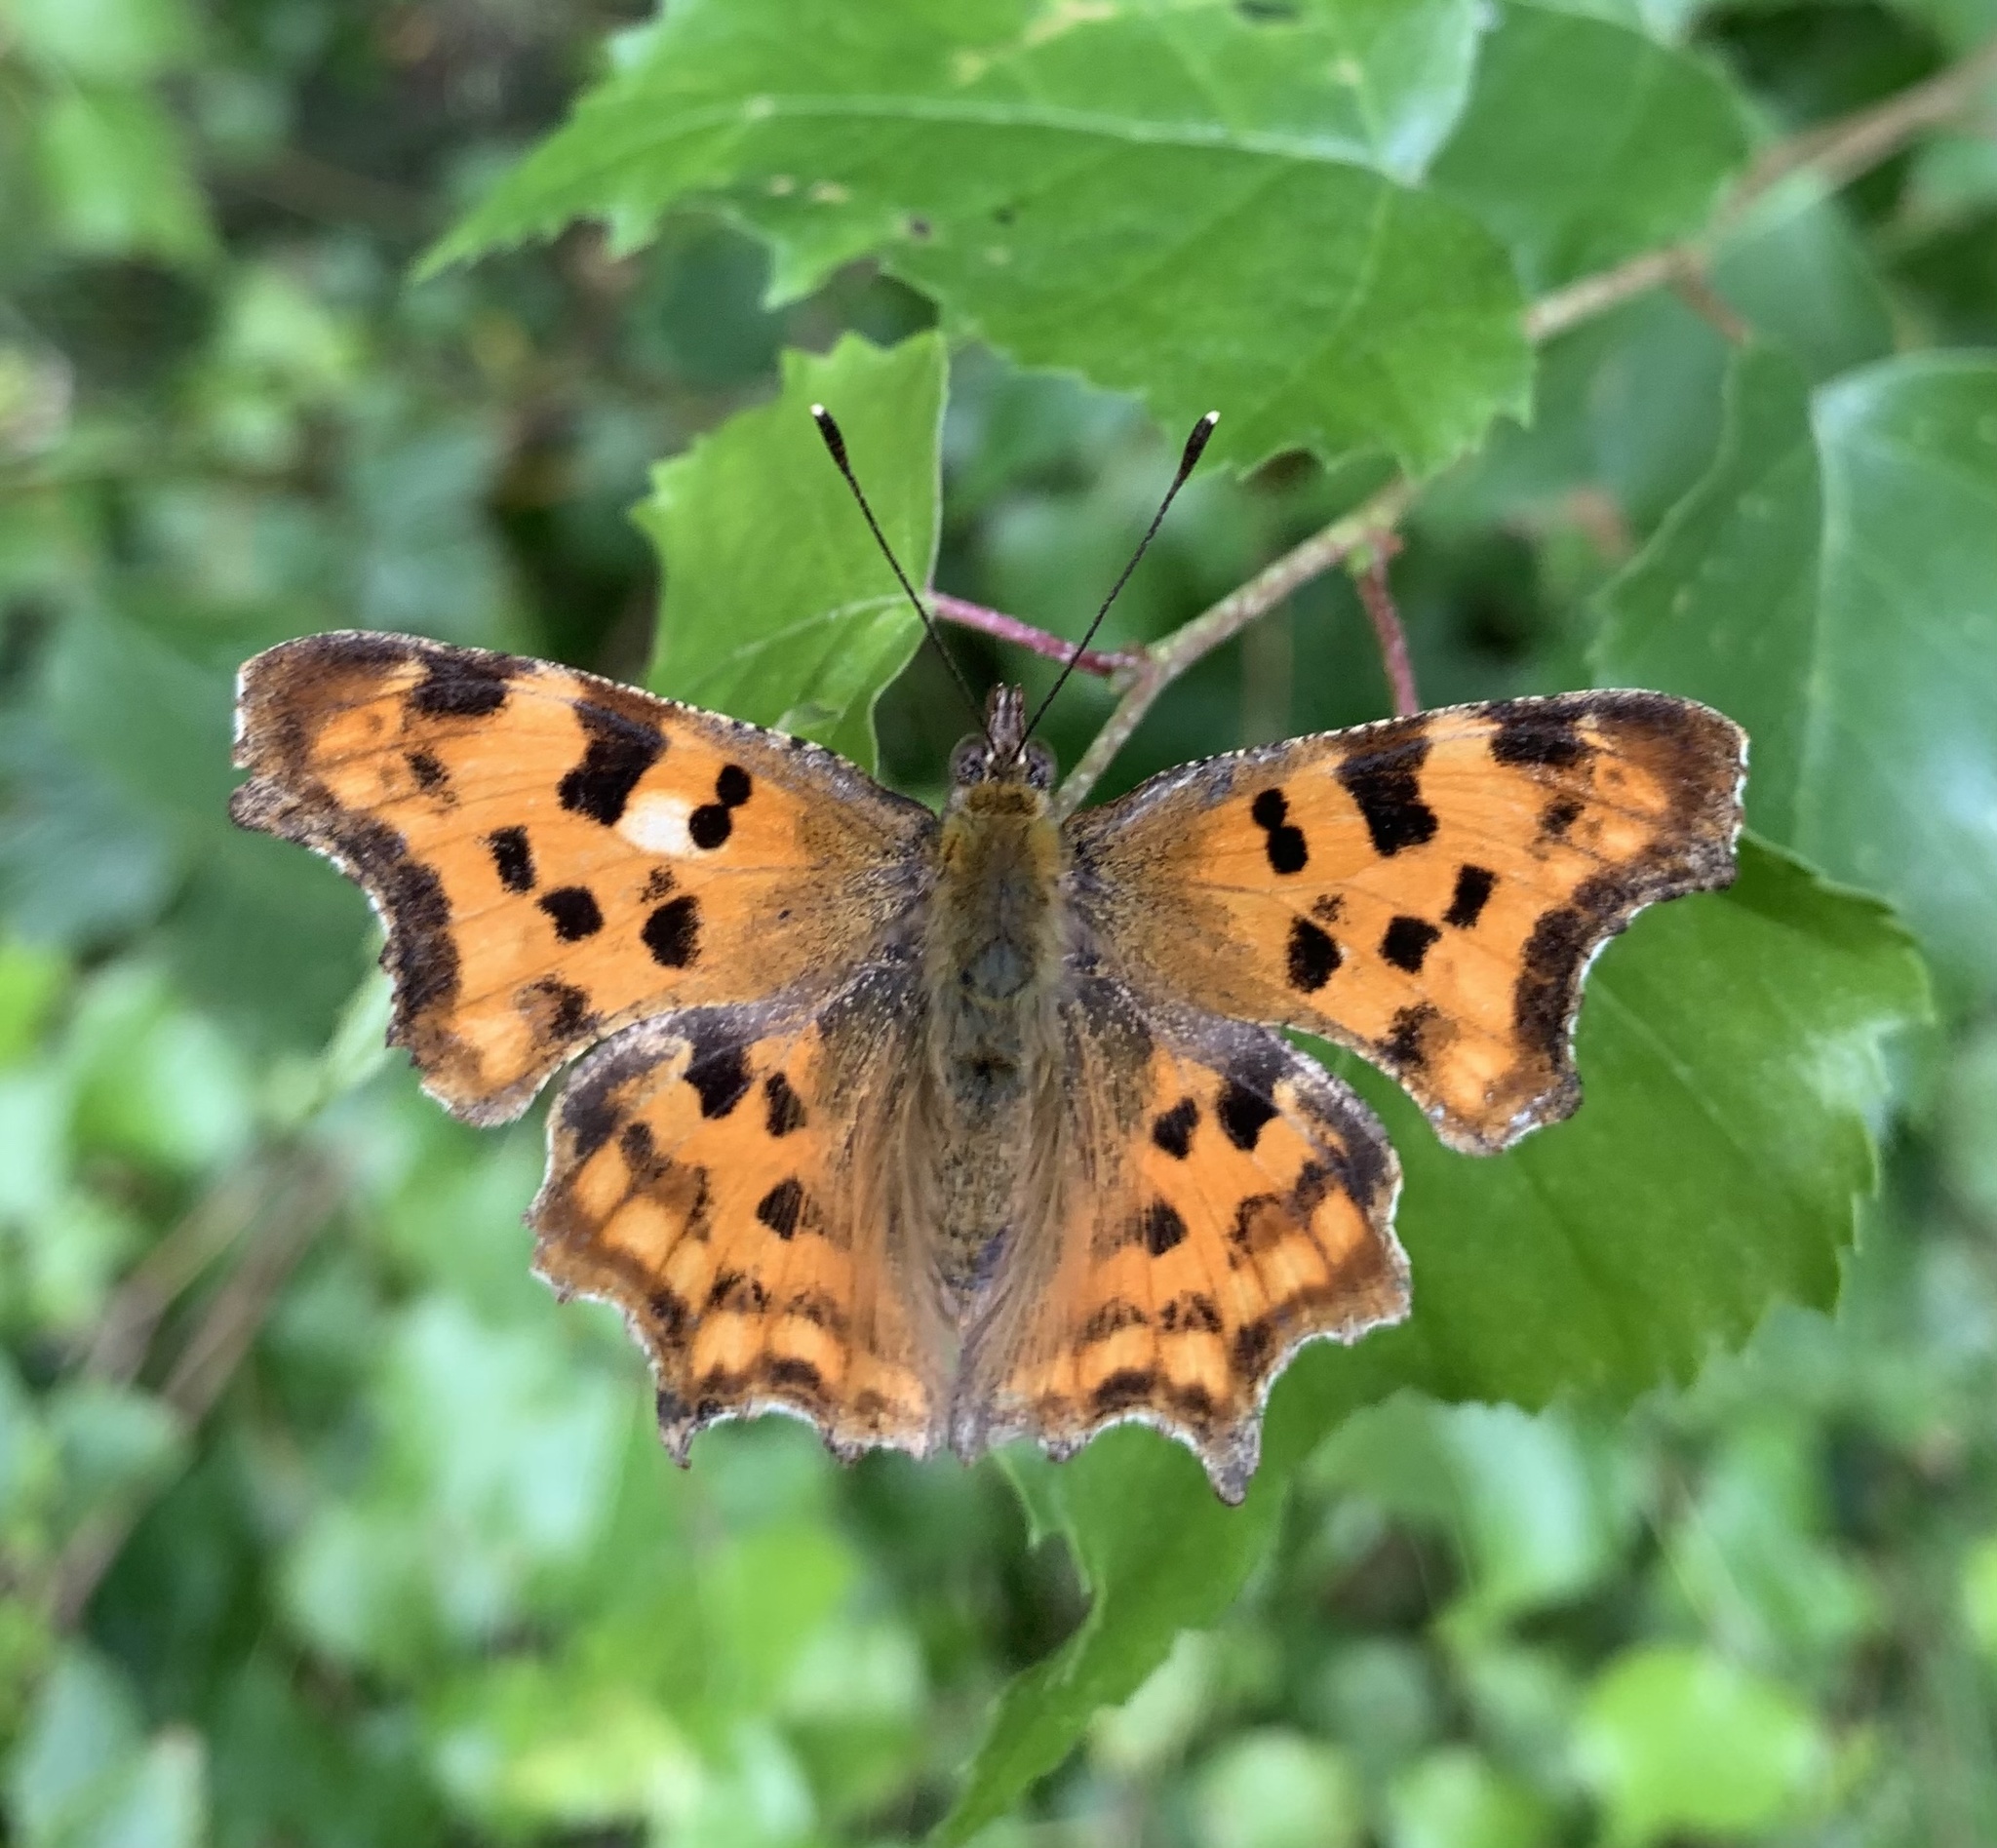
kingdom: Animalia
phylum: Arthropoda
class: Insecta
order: Lepidoptera
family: Nymphalidae
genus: Polygonia
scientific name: Polygonia c-album
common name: Comma
